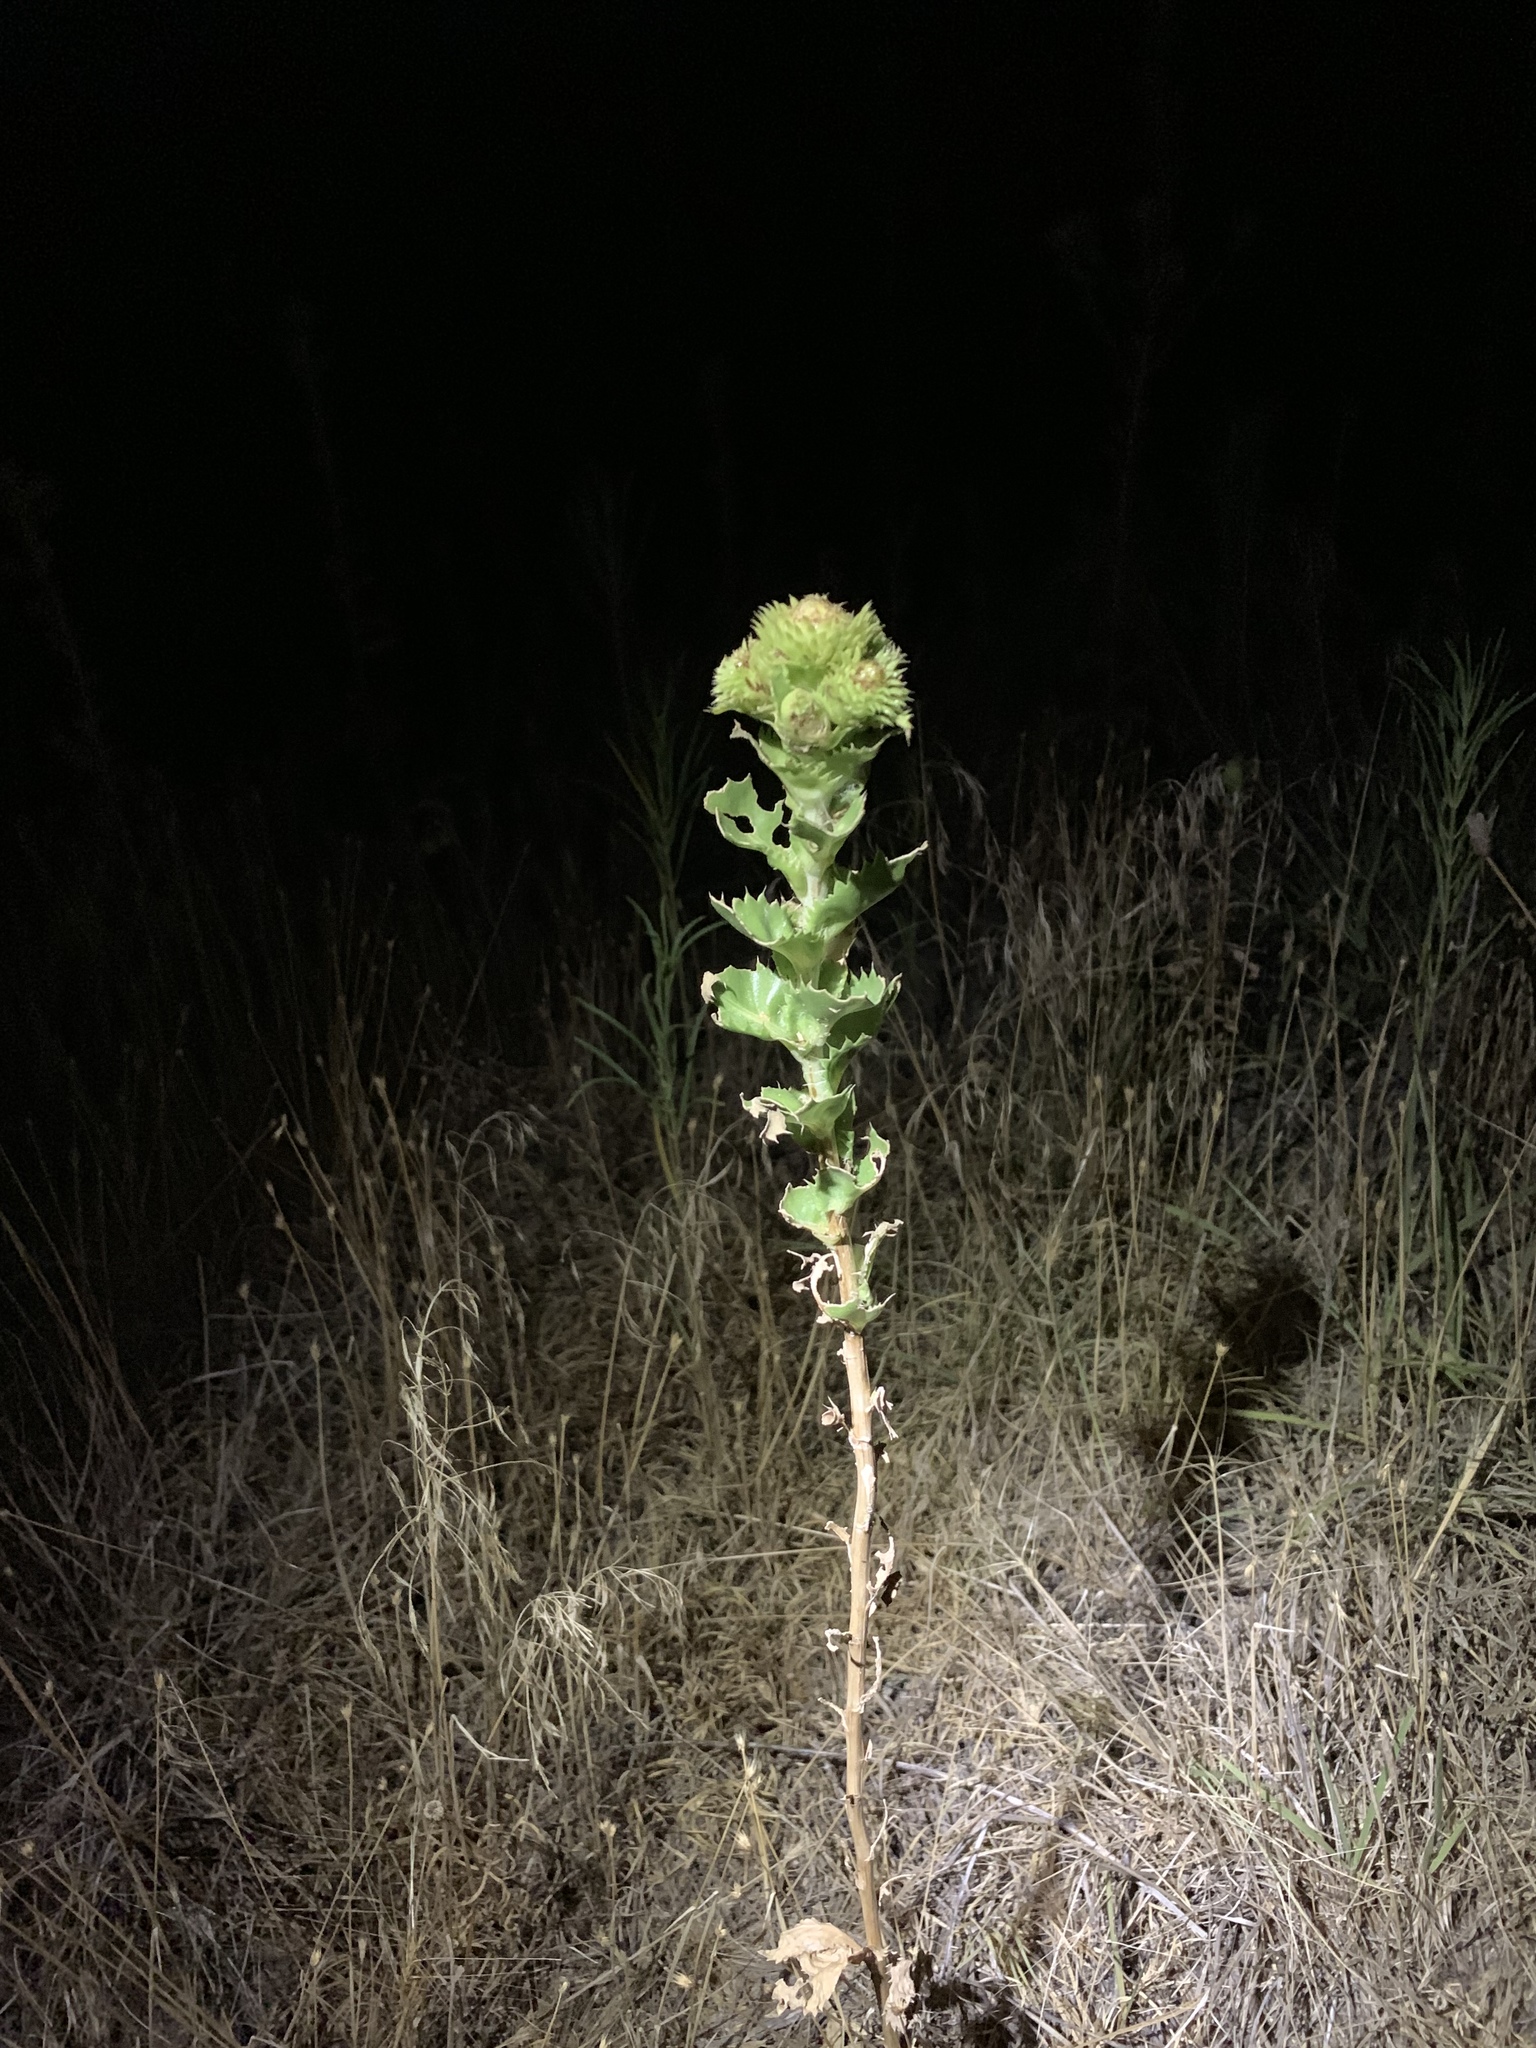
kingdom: Plantae
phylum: Tracheophyta
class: Magnoliopsida
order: Asterales
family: Asteraceae
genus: Grindelia
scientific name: Grindelia ciliata
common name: Goldenweed
